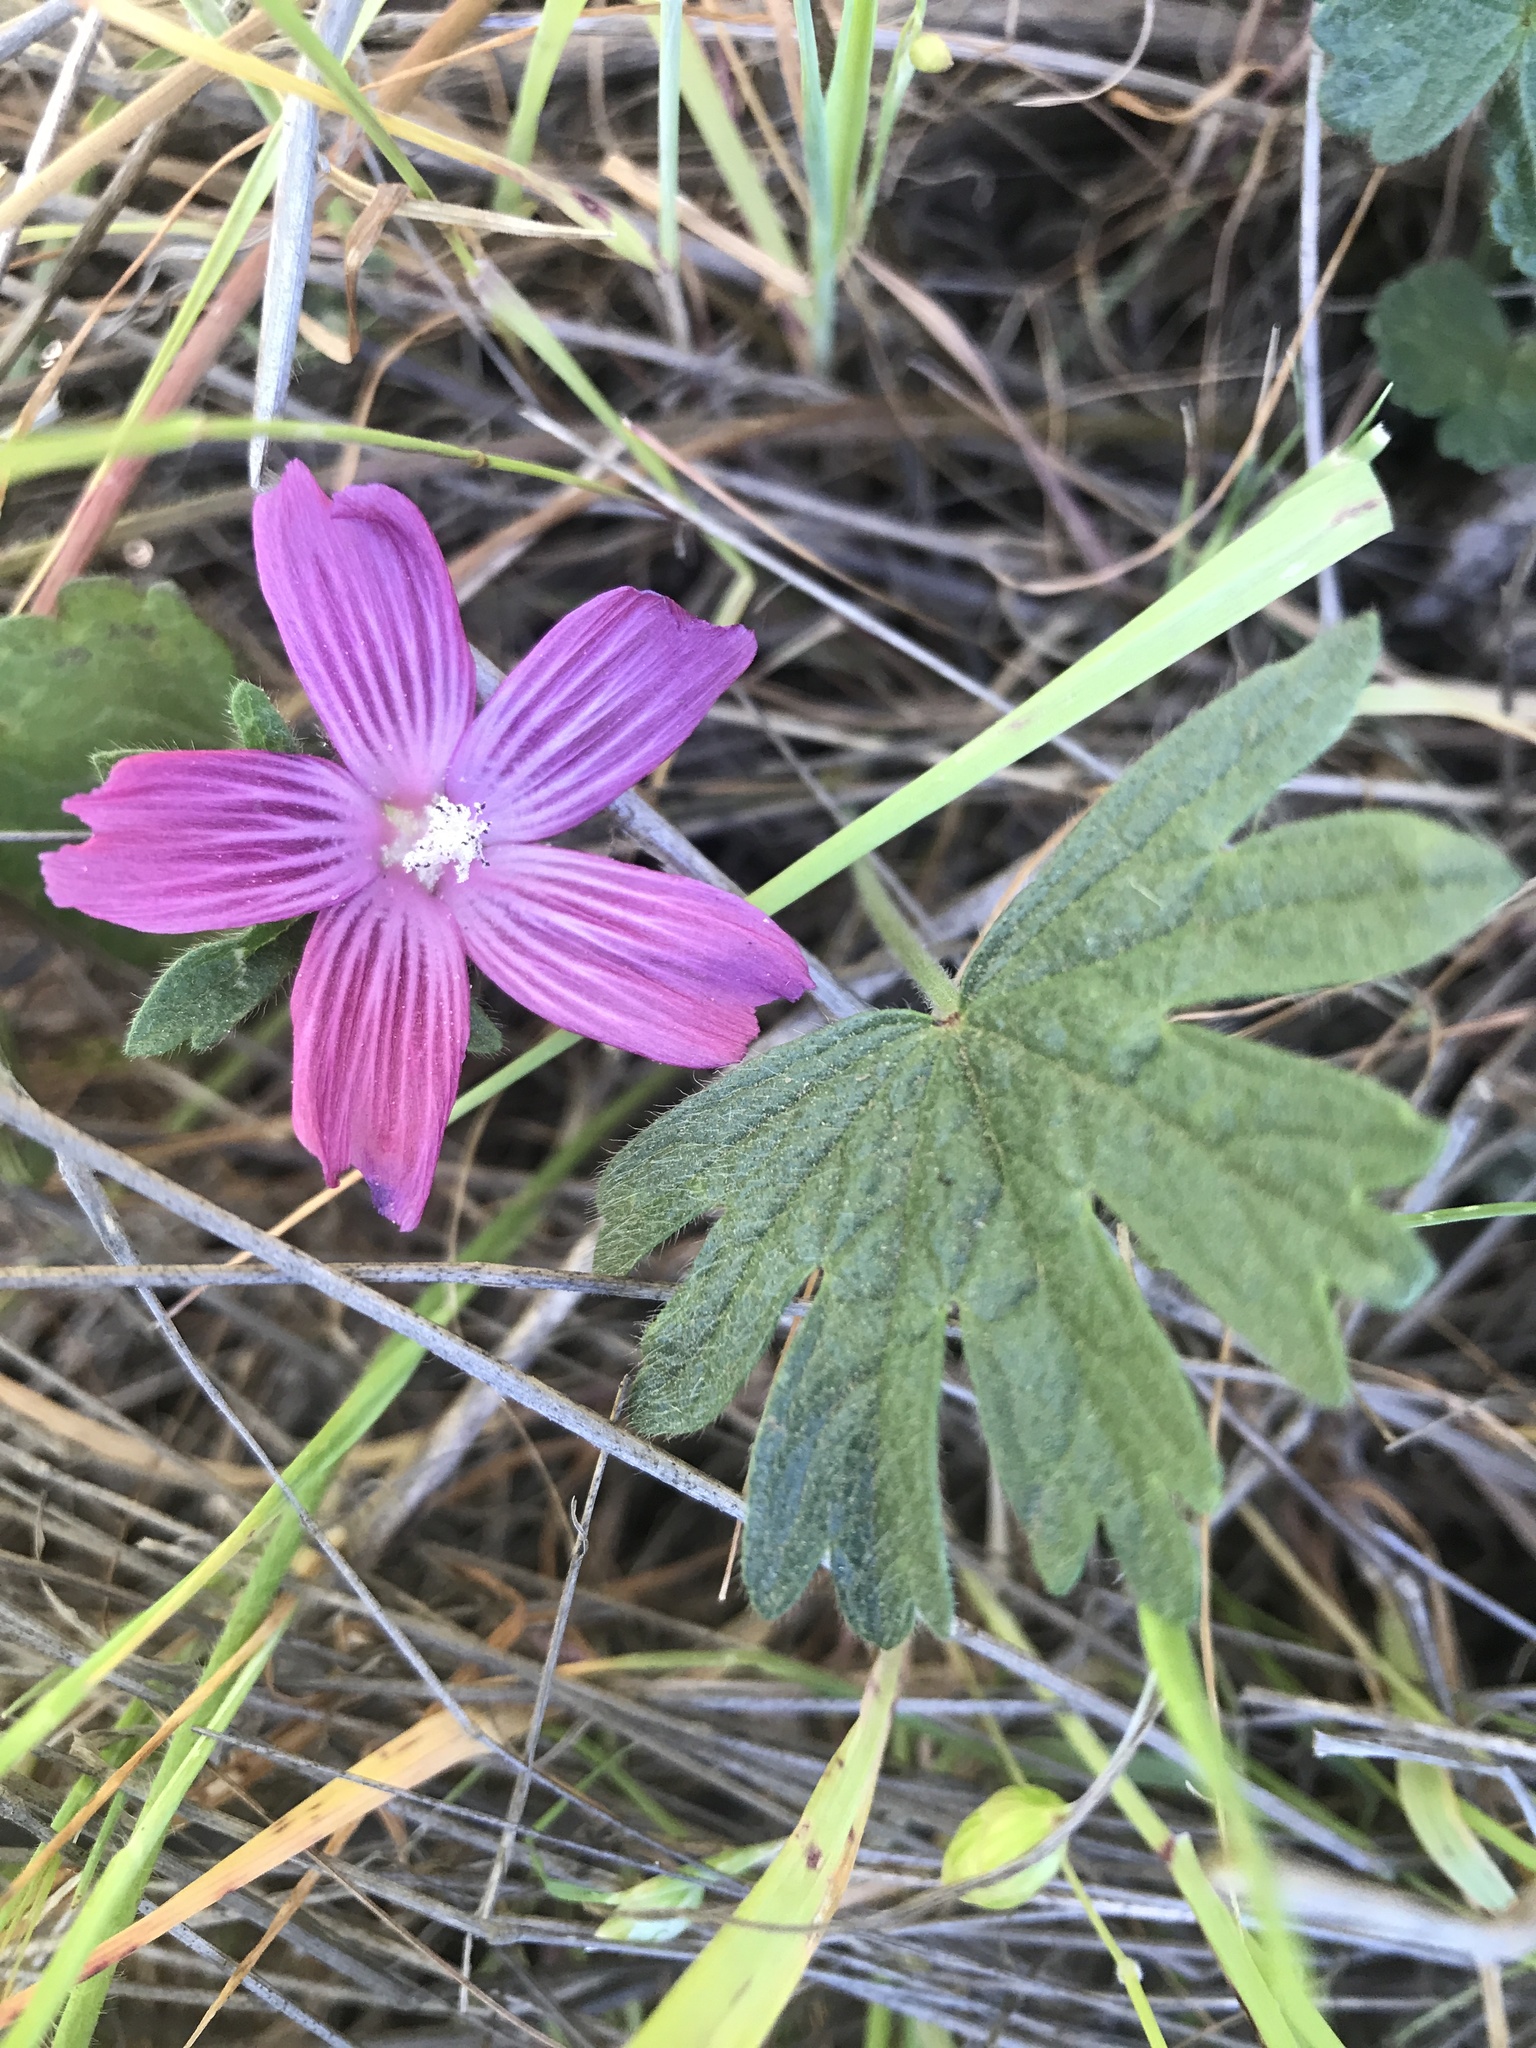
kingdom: Plantae
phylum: Tracheophyta
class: Magnoliopsida
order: Malvales
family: Malvaceae
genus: Sidalcea
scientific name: Sidalcea malviflora
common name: Greek mallow
